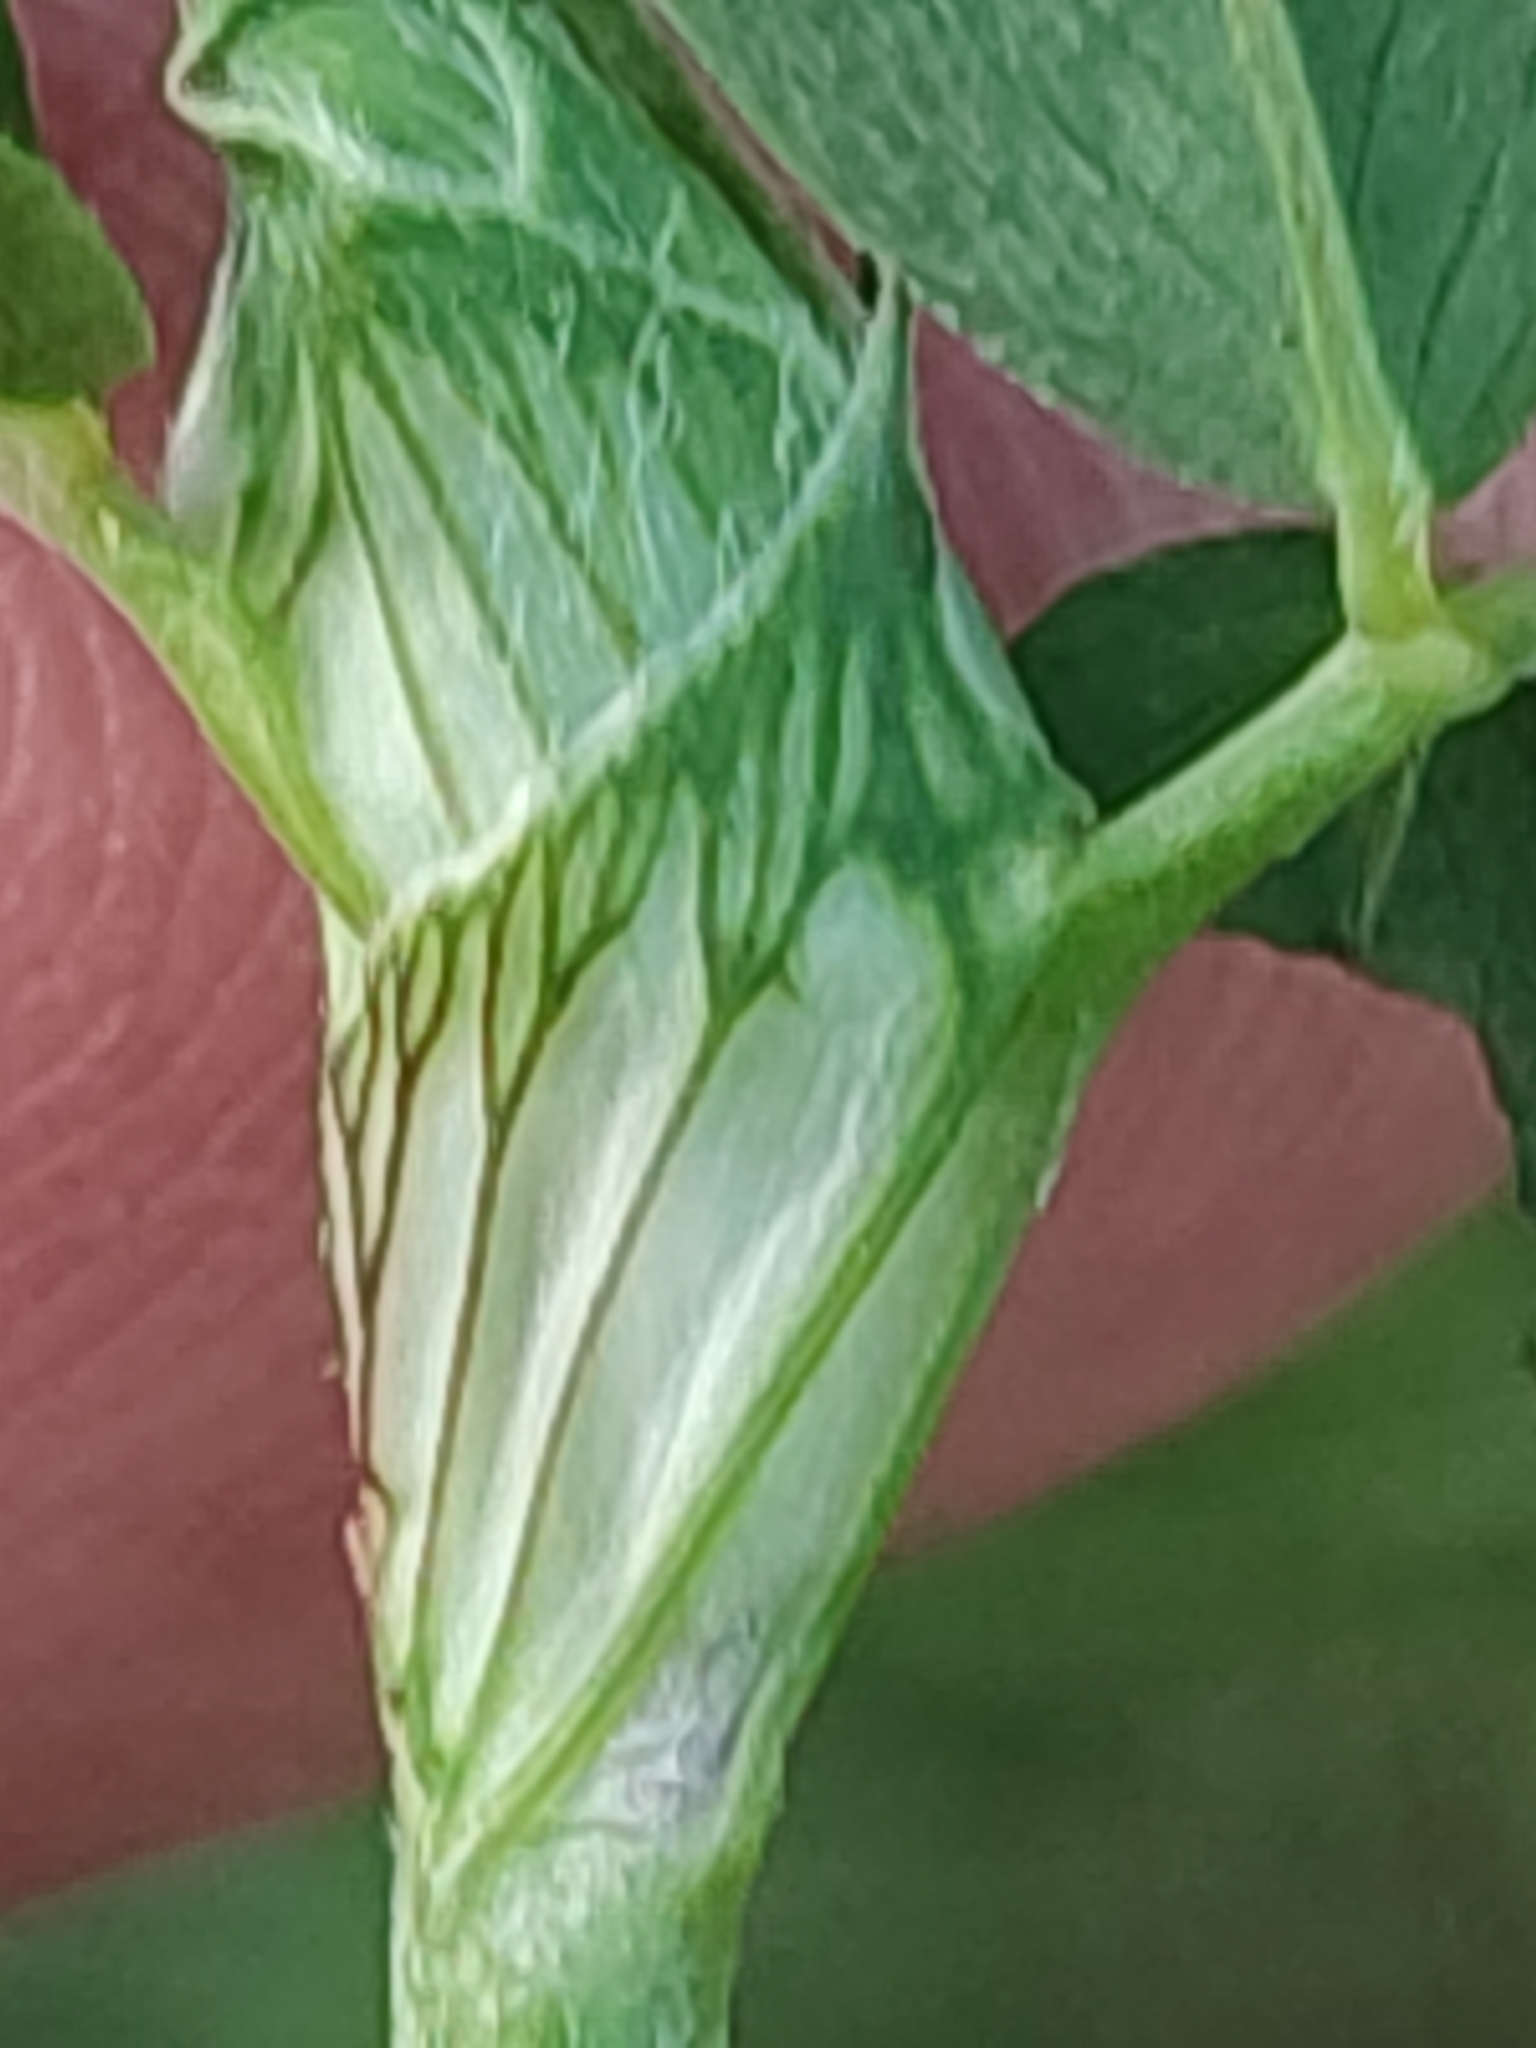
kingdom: Plantae
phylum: Tracheophyta
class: Magnoliopsida
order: Fabales
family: Fabaceae
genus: Trifolium
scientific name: Trifolium pratense
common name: Red clover
